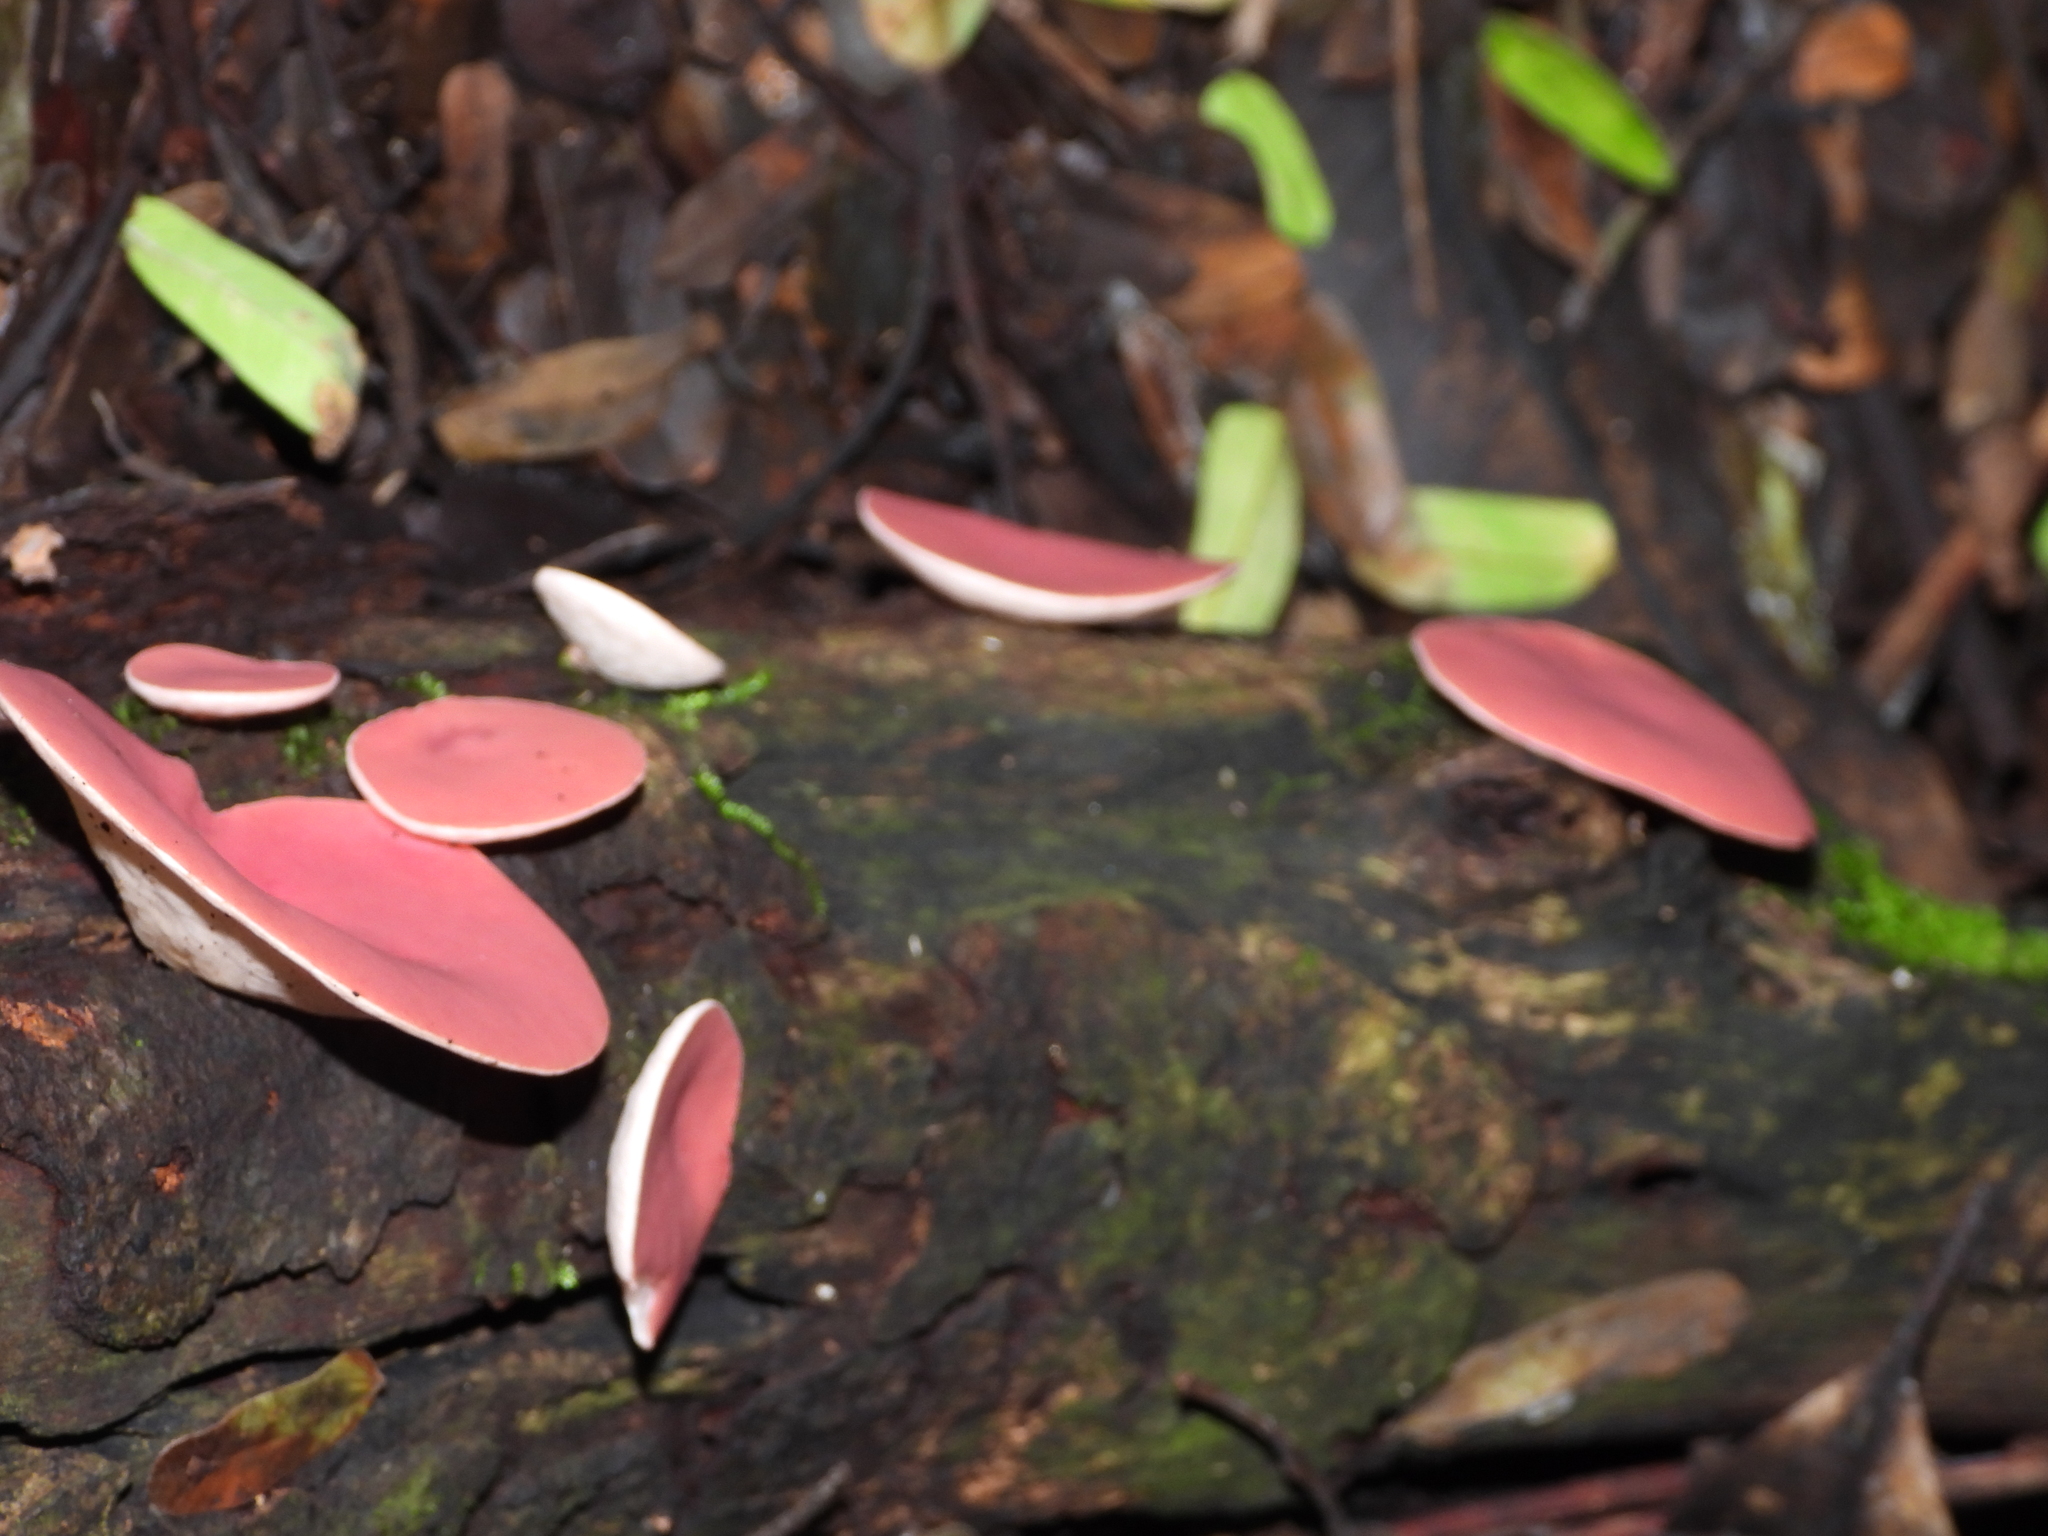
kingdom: Fungi
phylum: Ascomycota
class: Pezizomycetes
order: Pezizales
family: Sarcoscyphaceae
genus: Phillipsia
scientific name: Phillipsia domingensis
